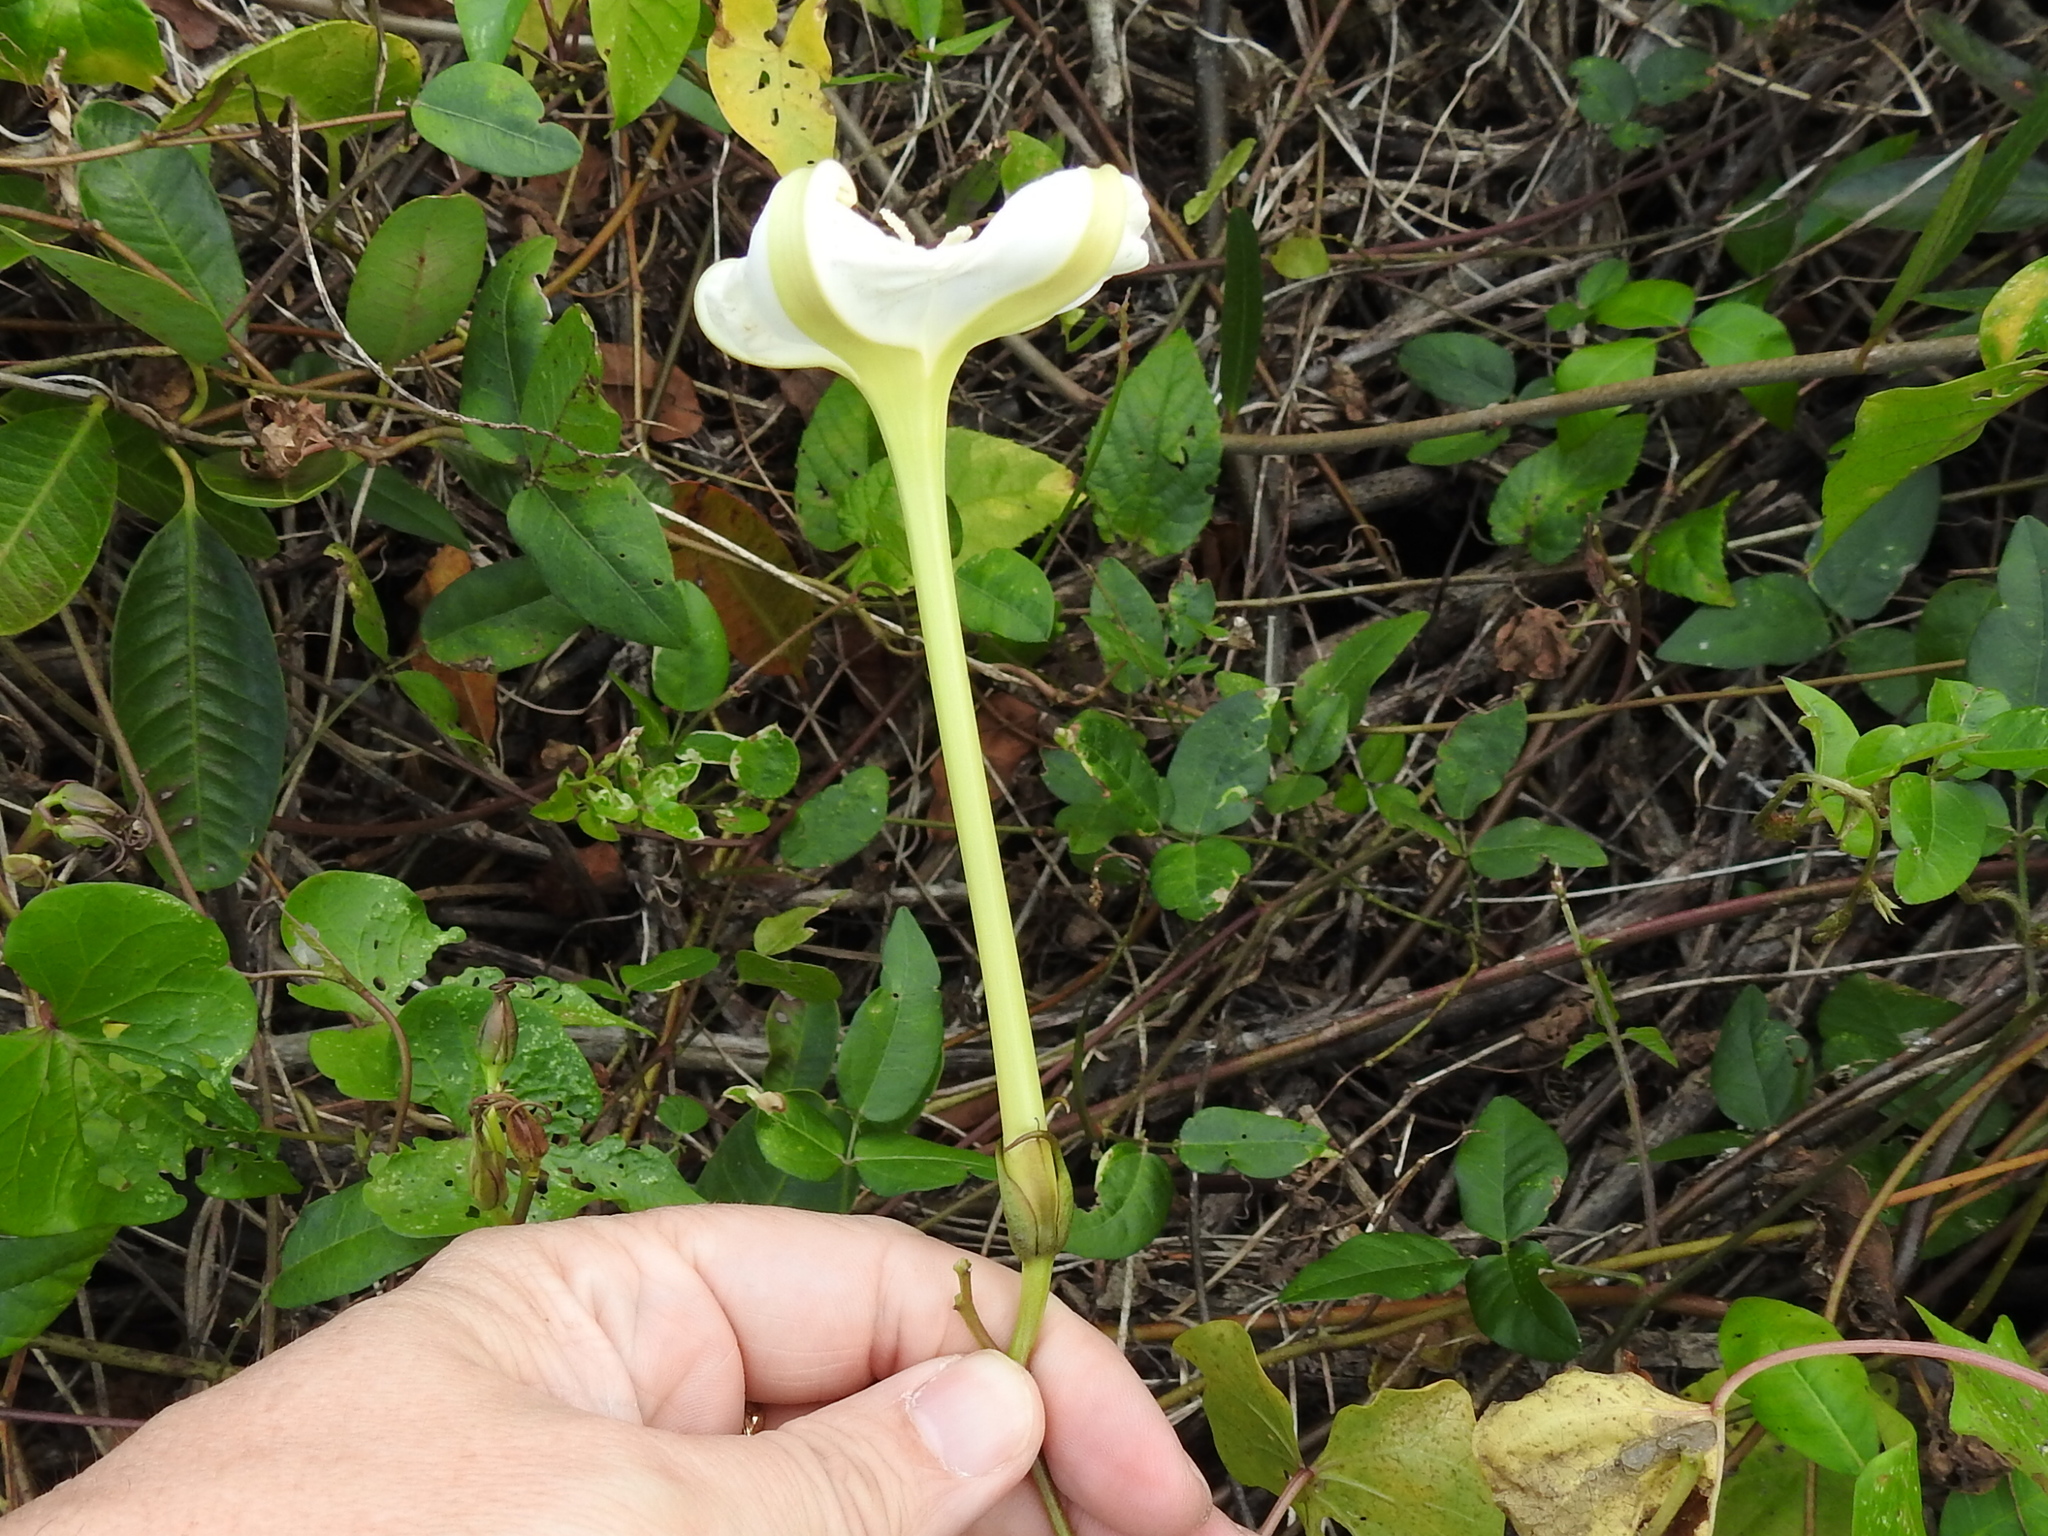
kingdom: Plantae
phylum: Tracheophyta
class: Magnoliopsida
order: Solanales
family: Convolvulaceae
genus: Ipomoea
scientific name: Ipomoea alba
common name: Moonflower
